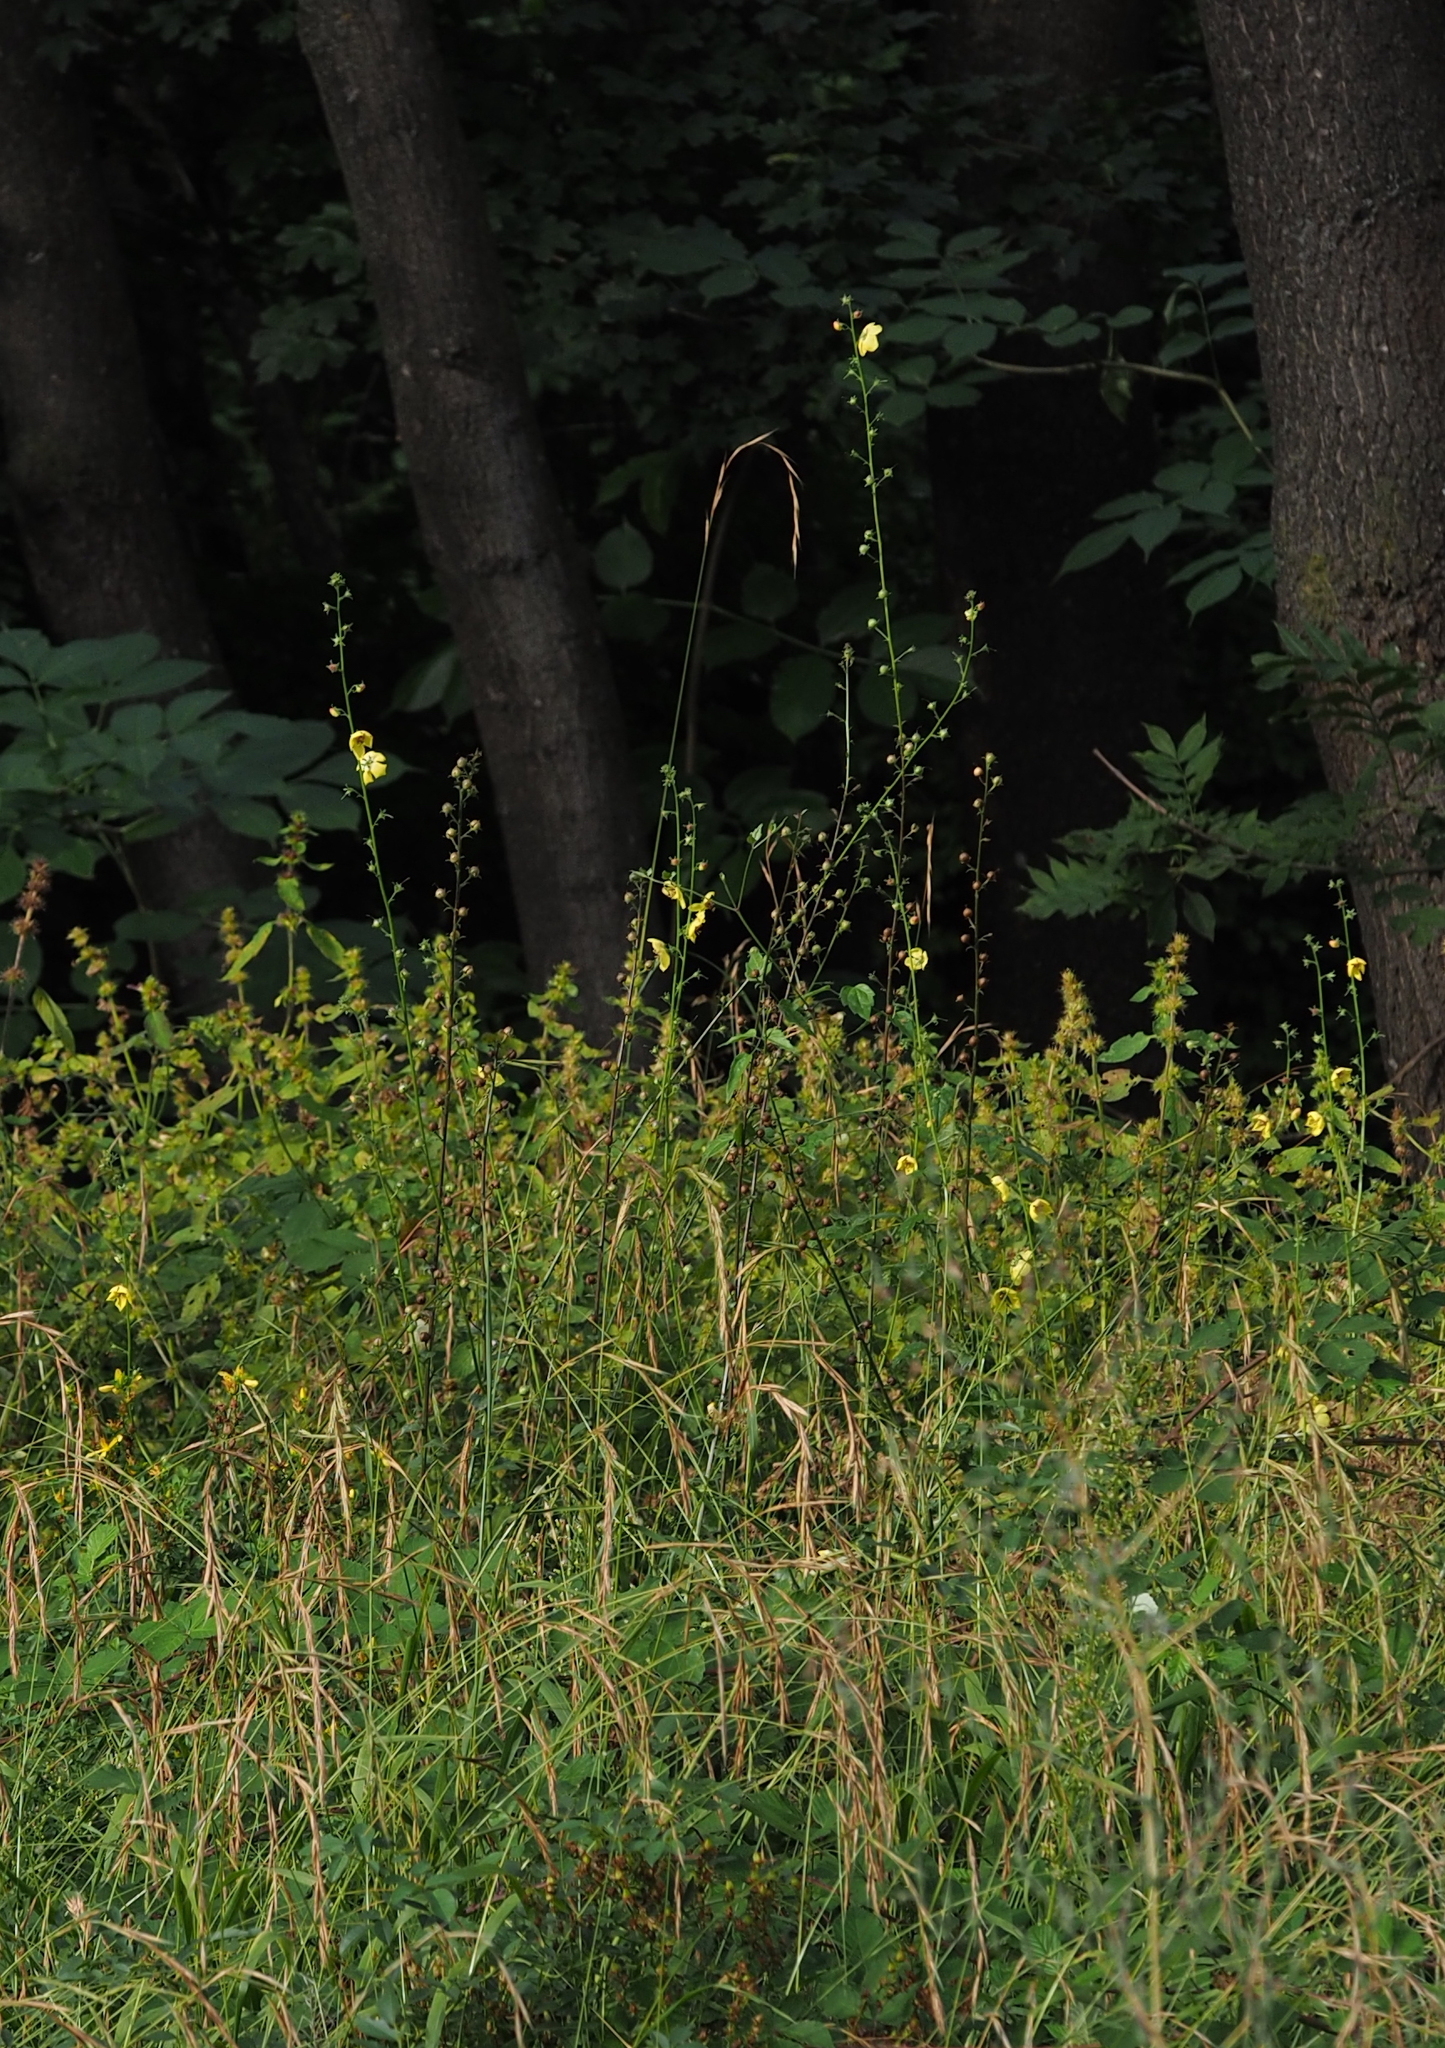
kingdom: Plantae
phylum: Tracheophyta
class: Magnoliopsida
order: Lamiales
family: Scrophulariaceae
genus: Verbascum
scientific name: Verbascum blattaria
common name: Moth mullein
